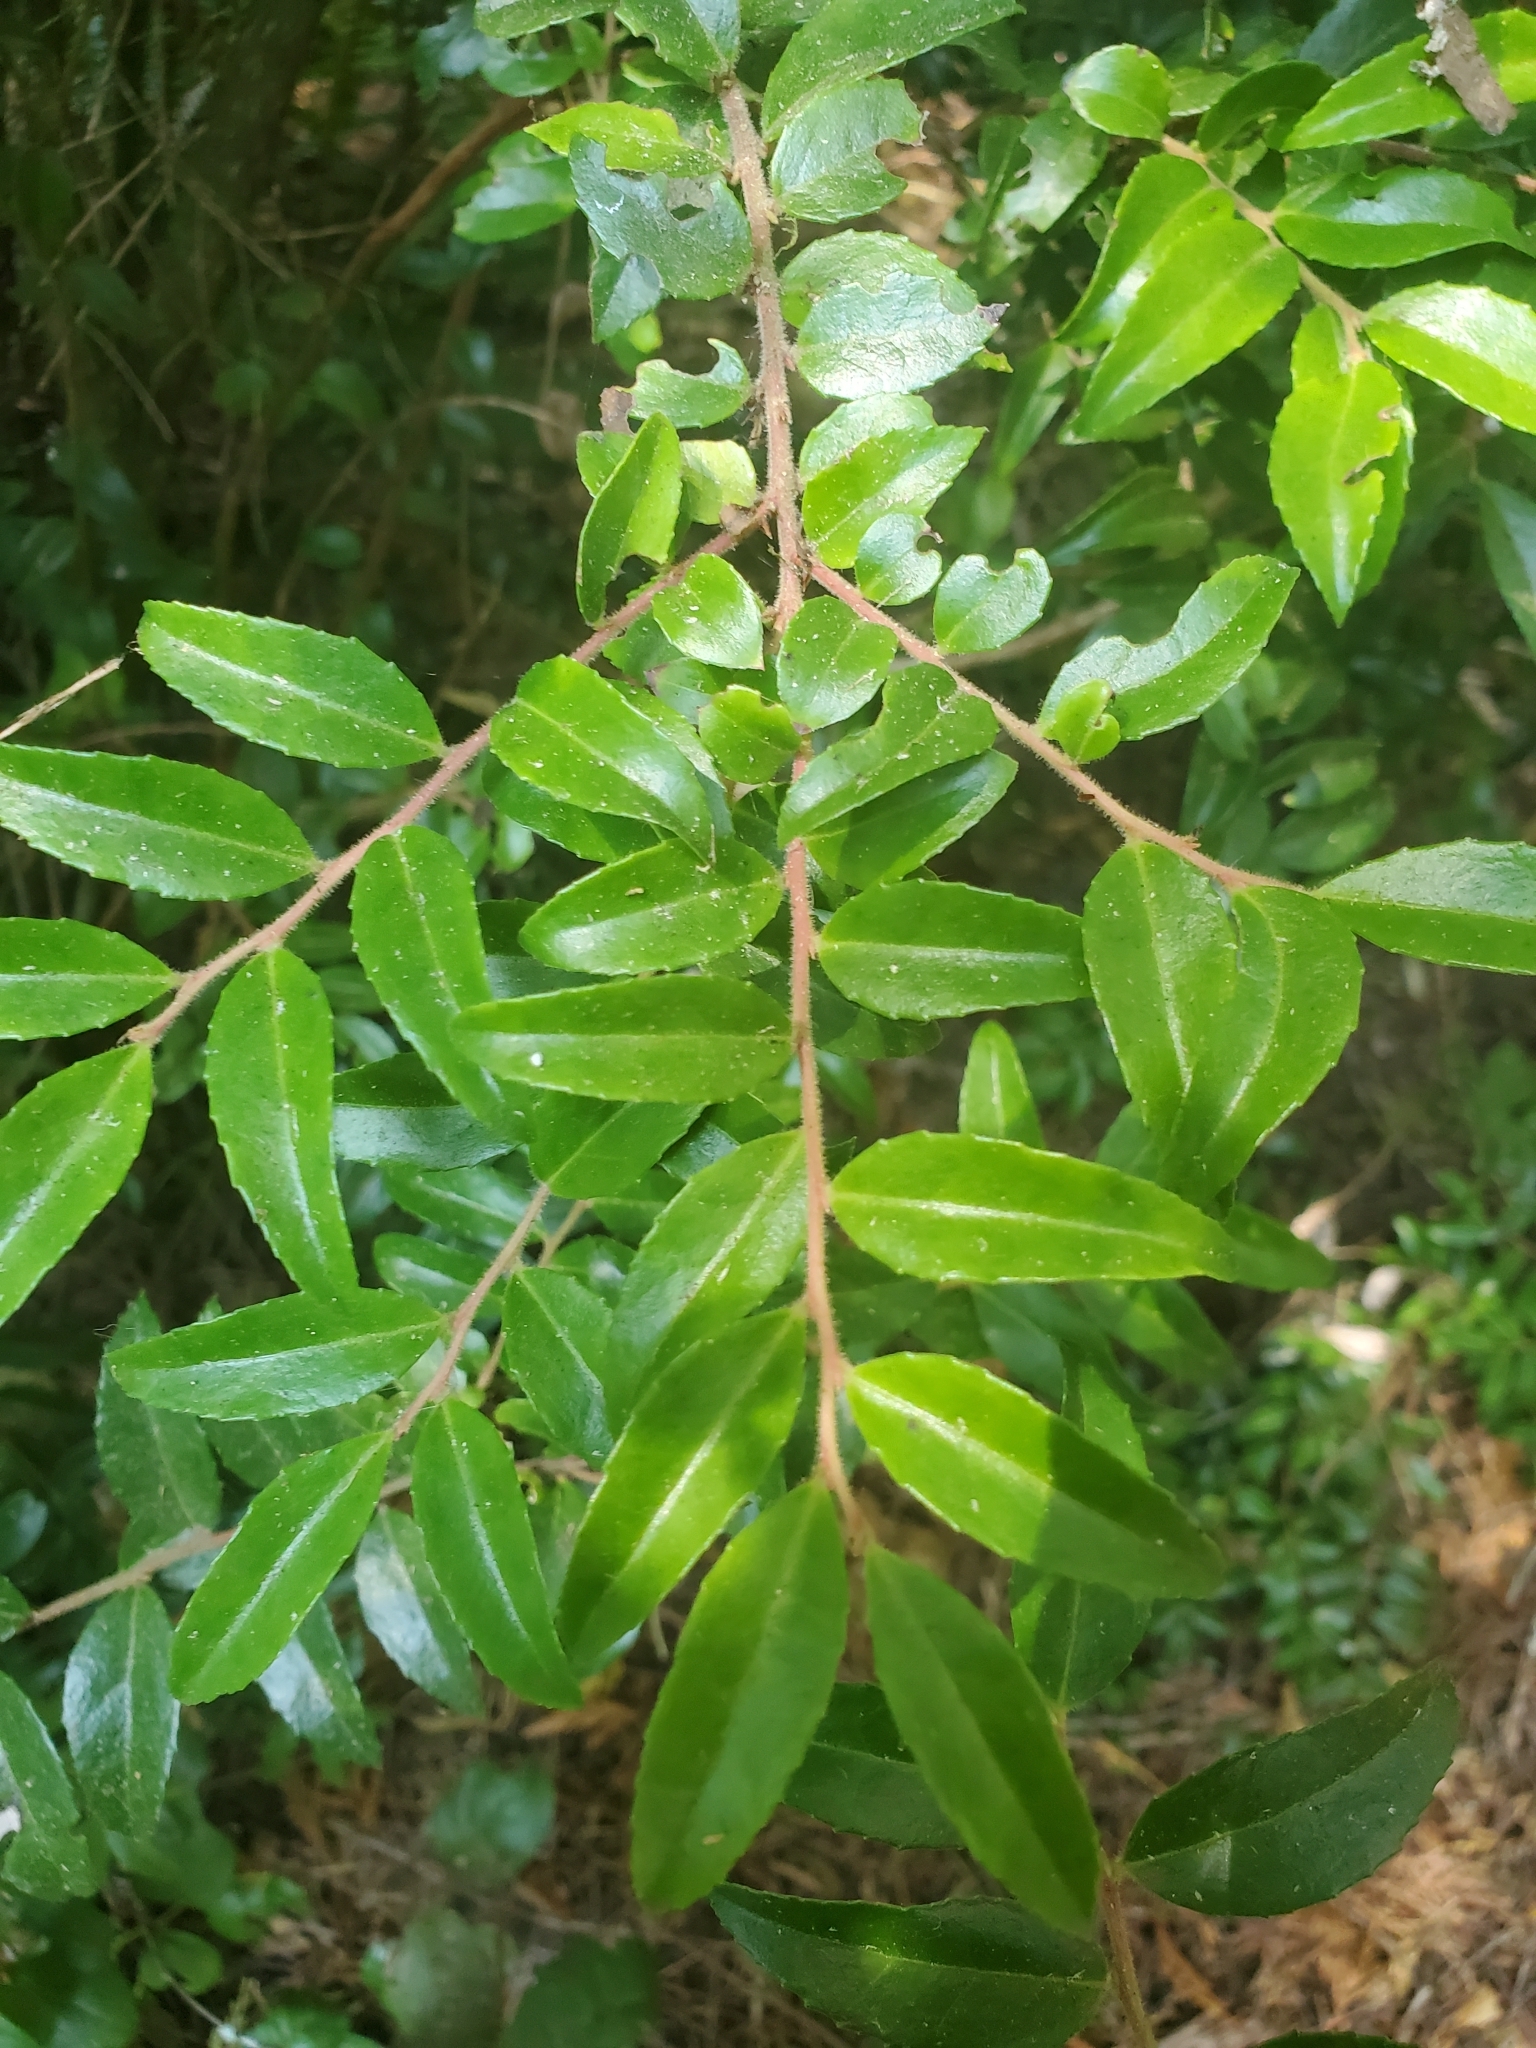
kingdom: Plantae
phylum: Tracheophyta
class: Magnoliopsida
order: Ericales
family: Ericaceae
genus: Vaccinium
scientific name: Vaccinium ovatum
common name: California-huckleberry
